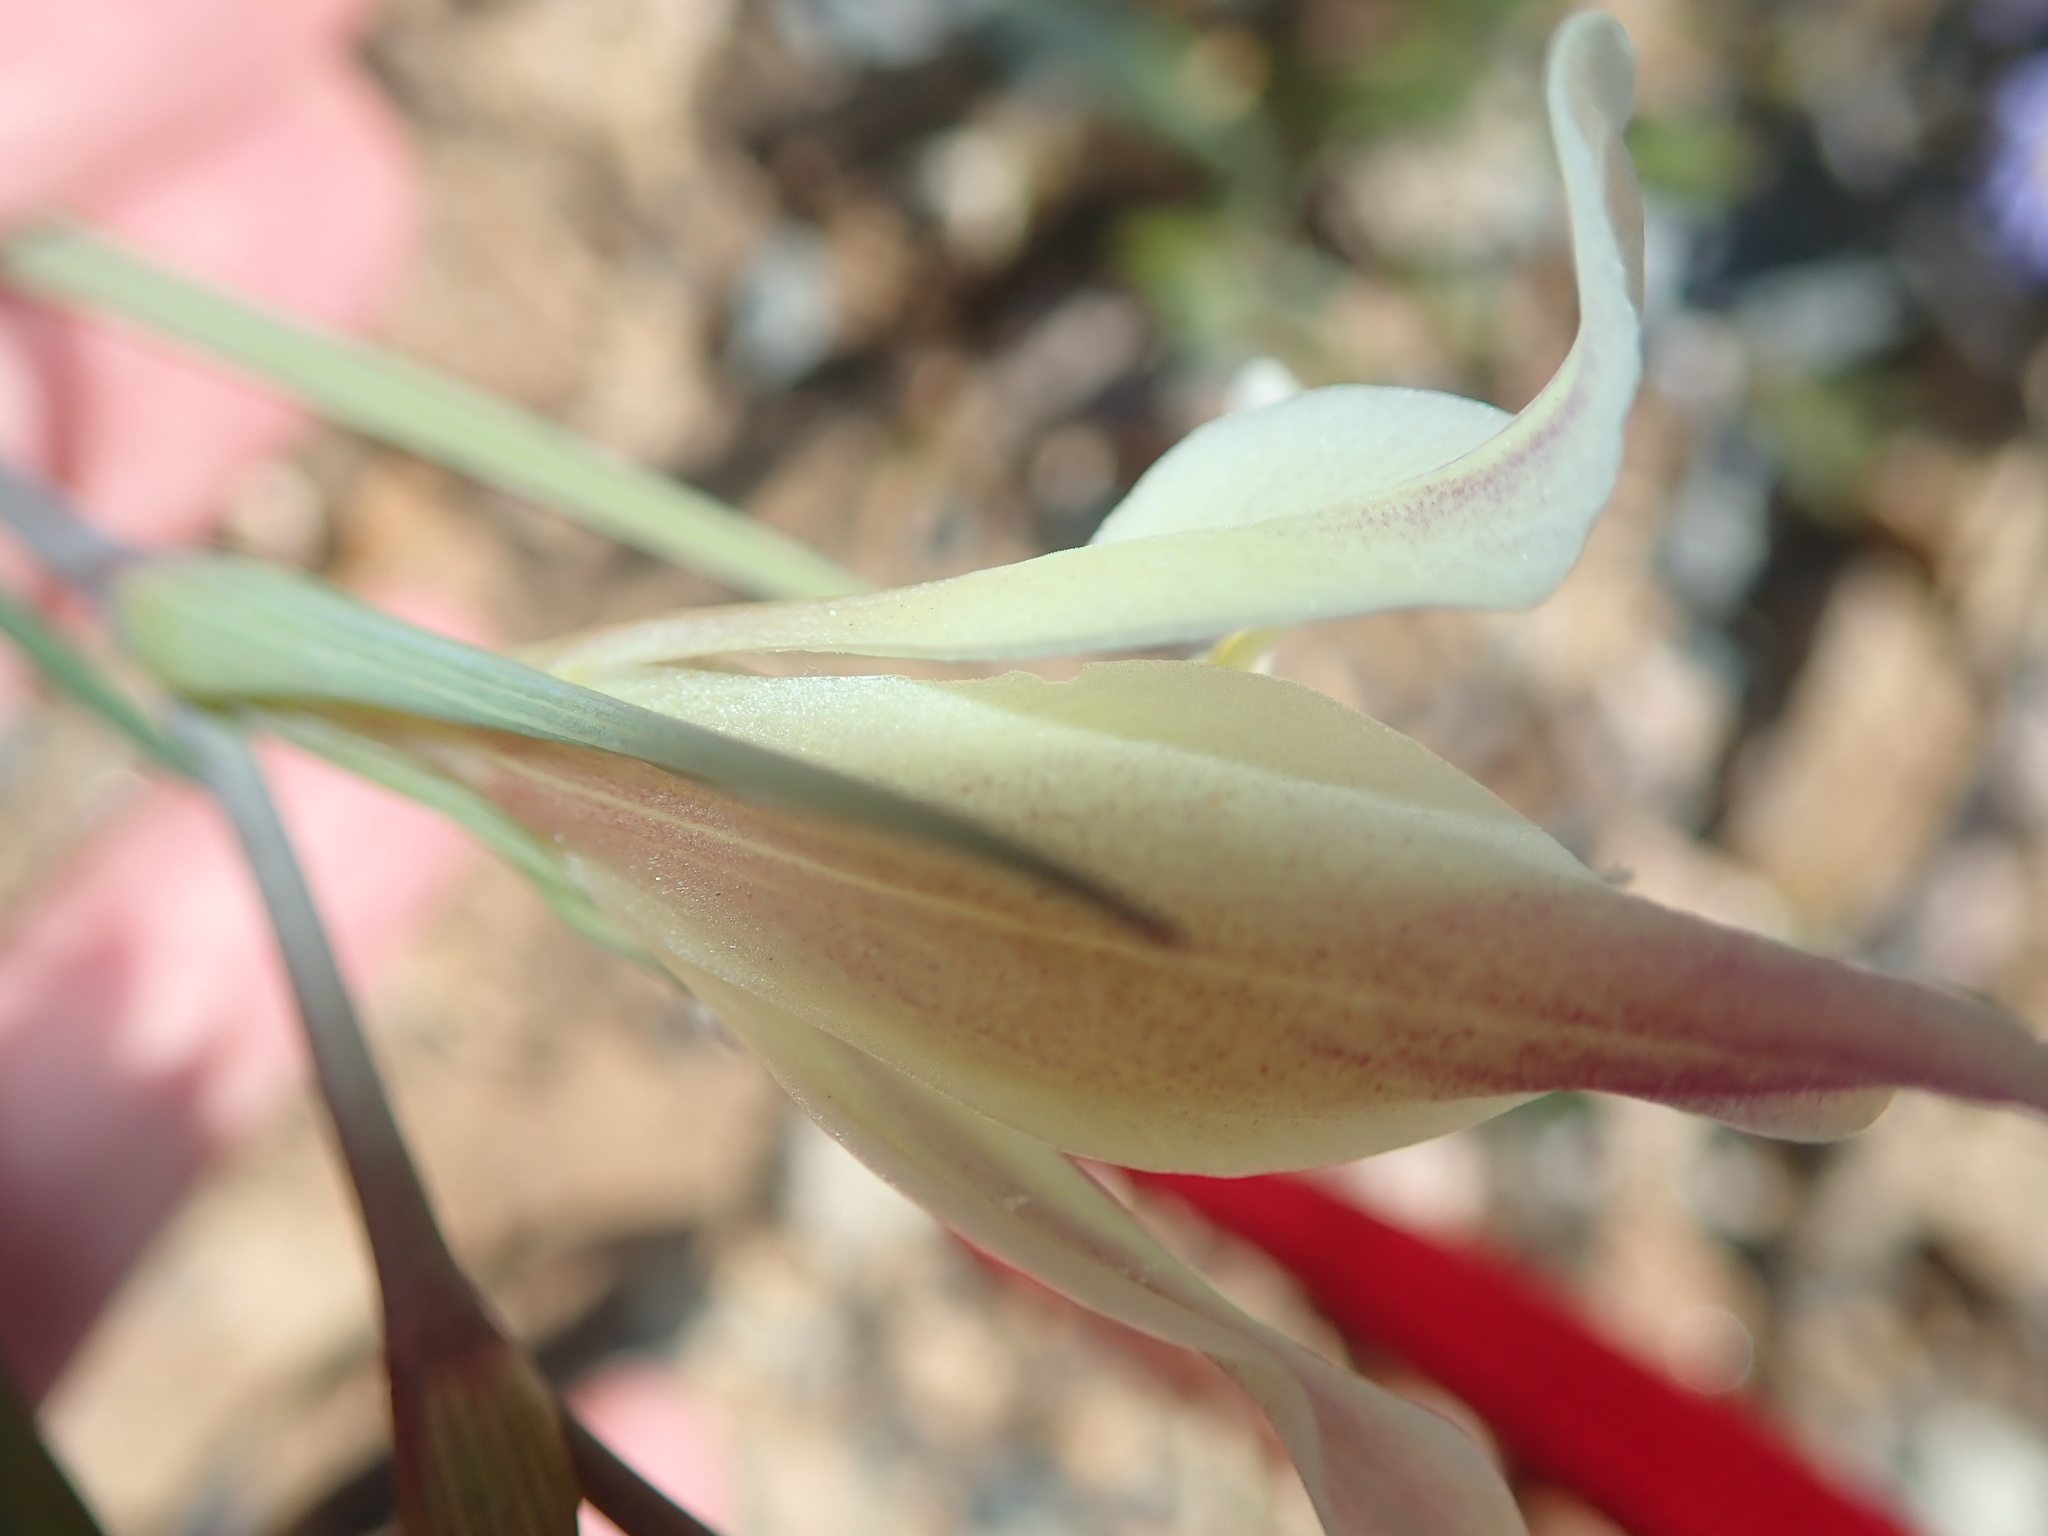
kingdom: Plantae
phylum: Tracheophyta
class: Liliopsida
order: Asparagales
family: Iridaceae
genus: Gladiolus
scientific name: Gladiolus scullyi
